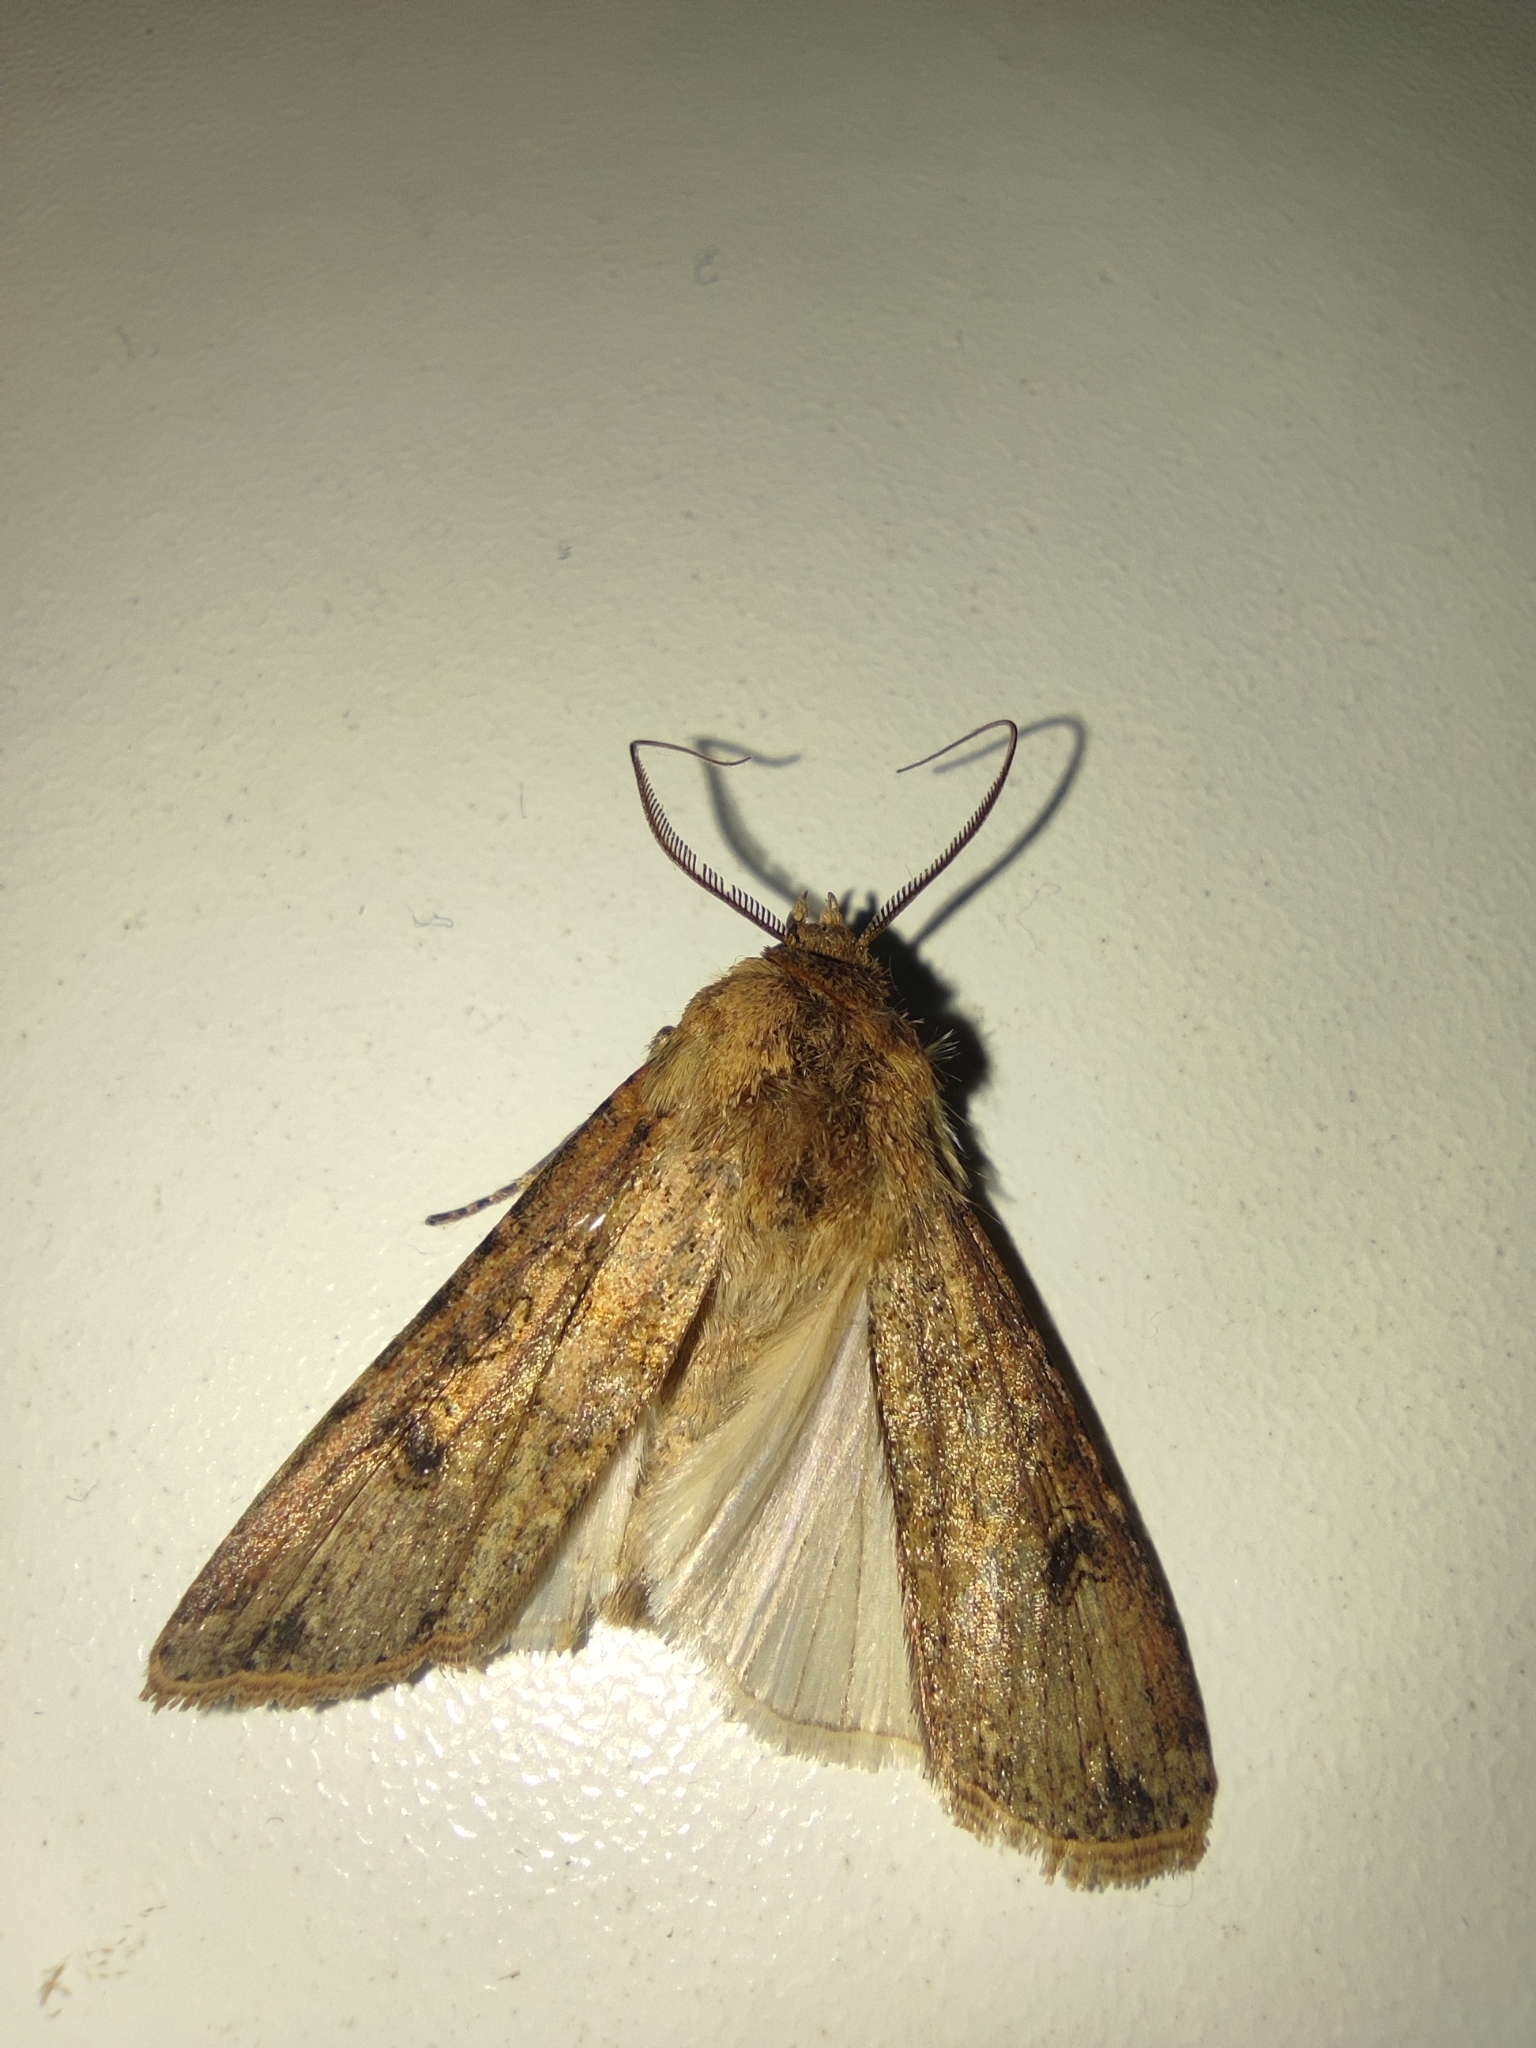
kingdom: Animalia
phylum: Arthropoda
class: Insecta
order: Lepidoptera
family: Noctuidae
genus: Agrotis
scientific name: Agrotis segetum
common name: Turnip moth
